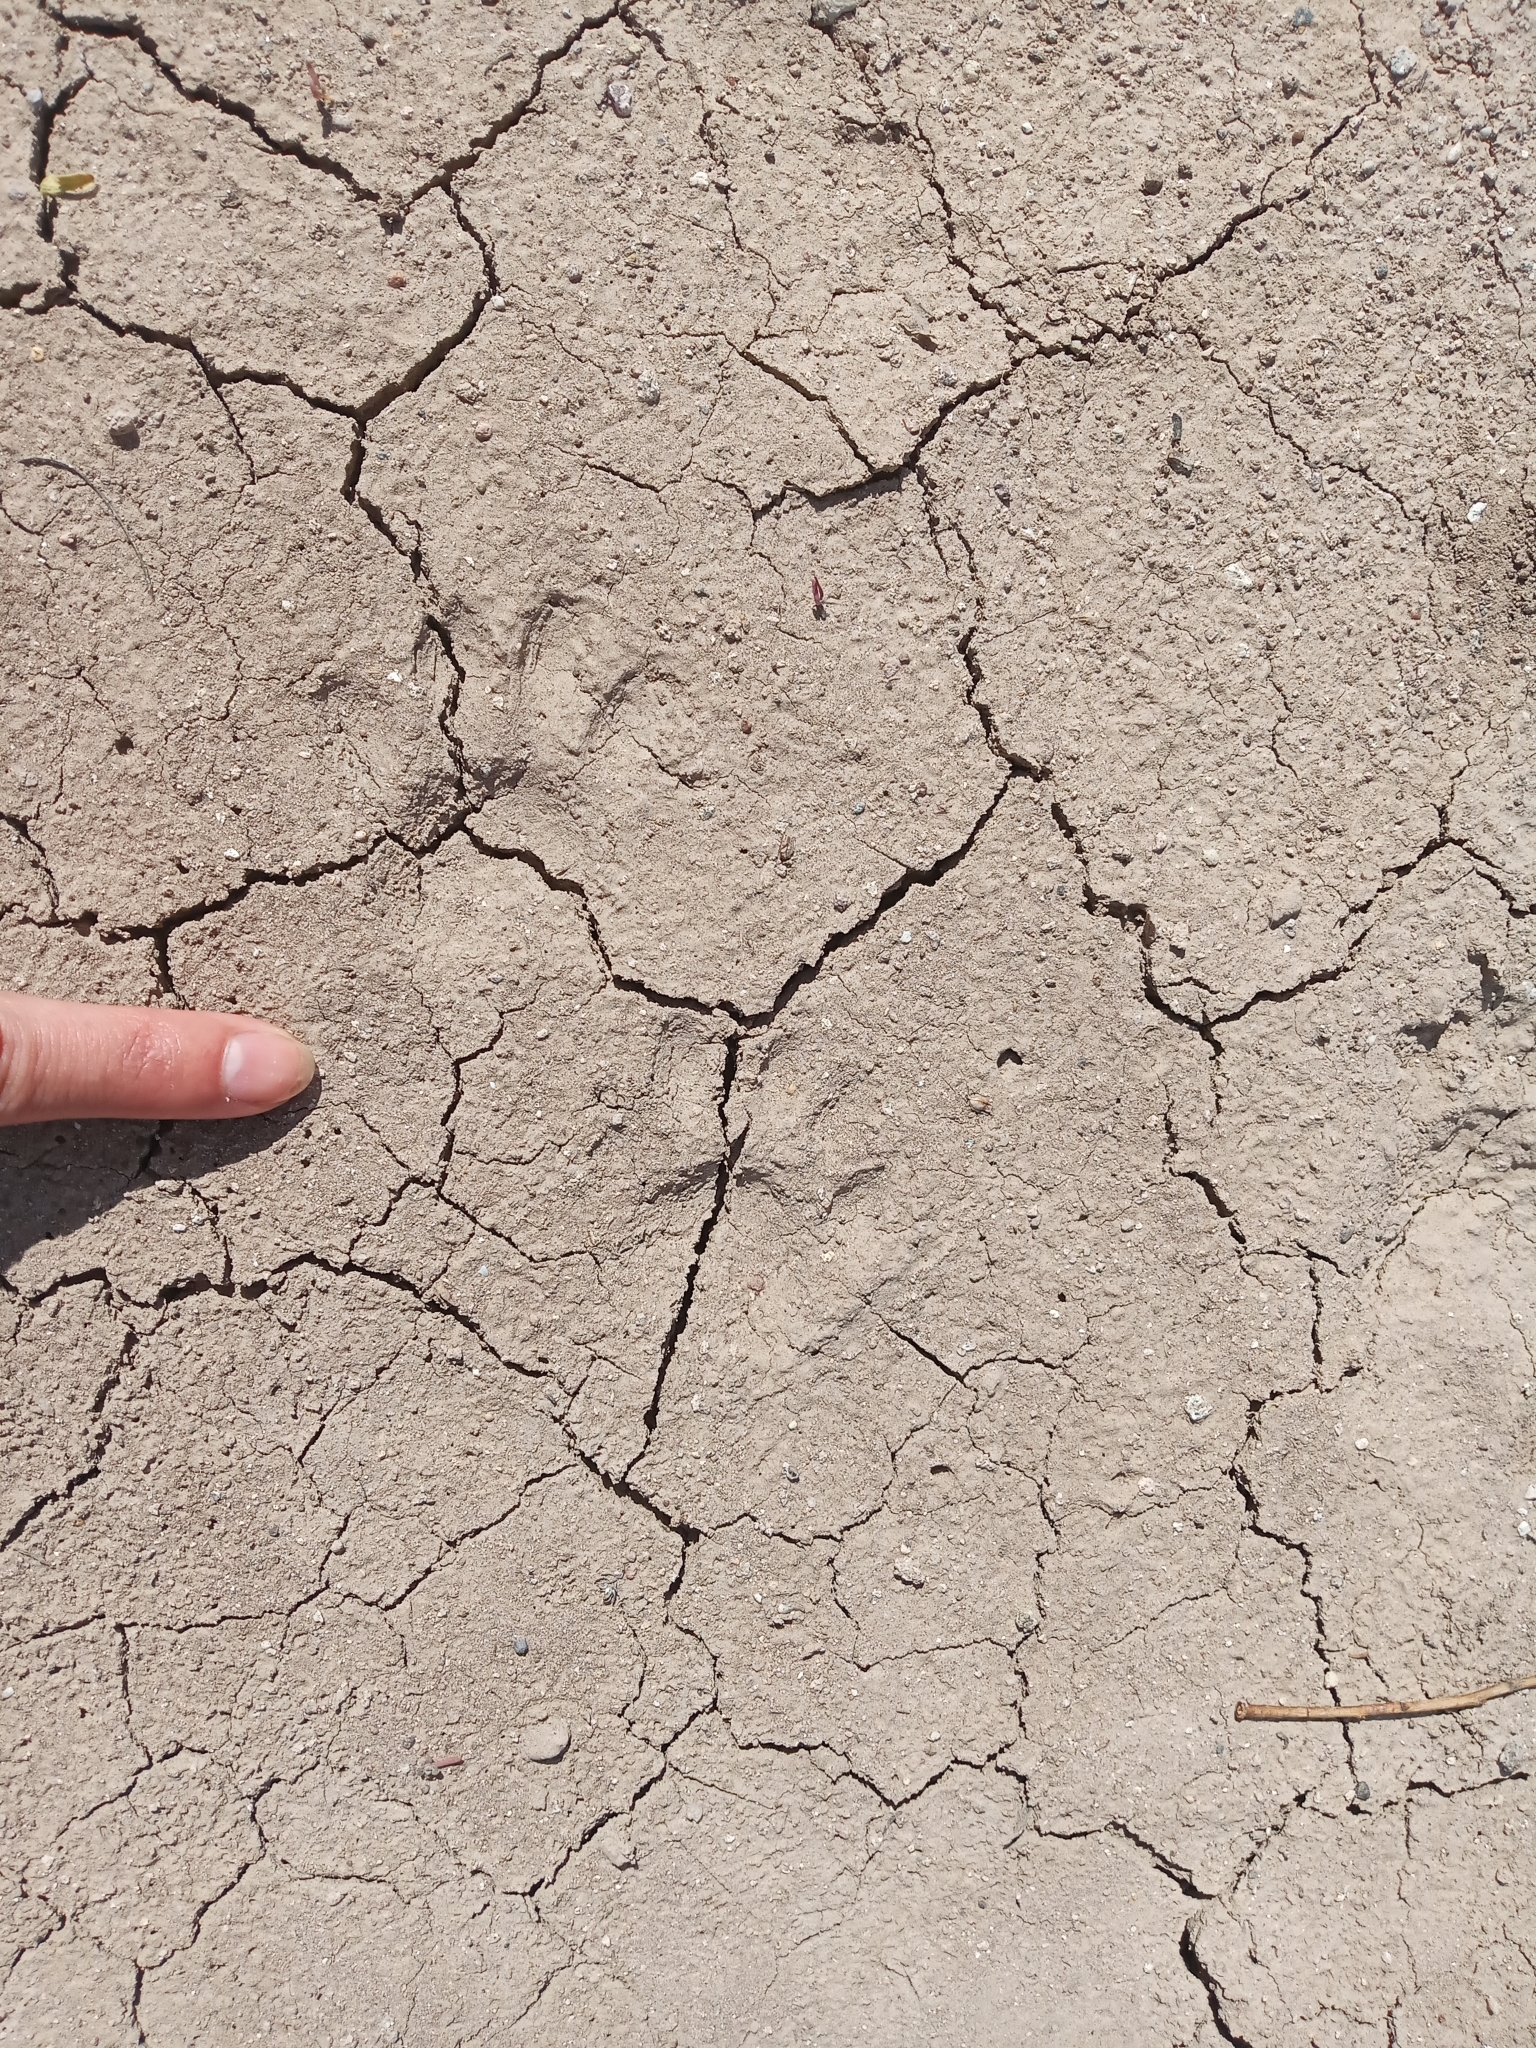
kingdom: Animalia
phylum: Chordata
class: Mammalia
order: Carnivora
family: Procyonidae
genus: Procyon
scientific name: Procyon lotor
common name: Raccoon
